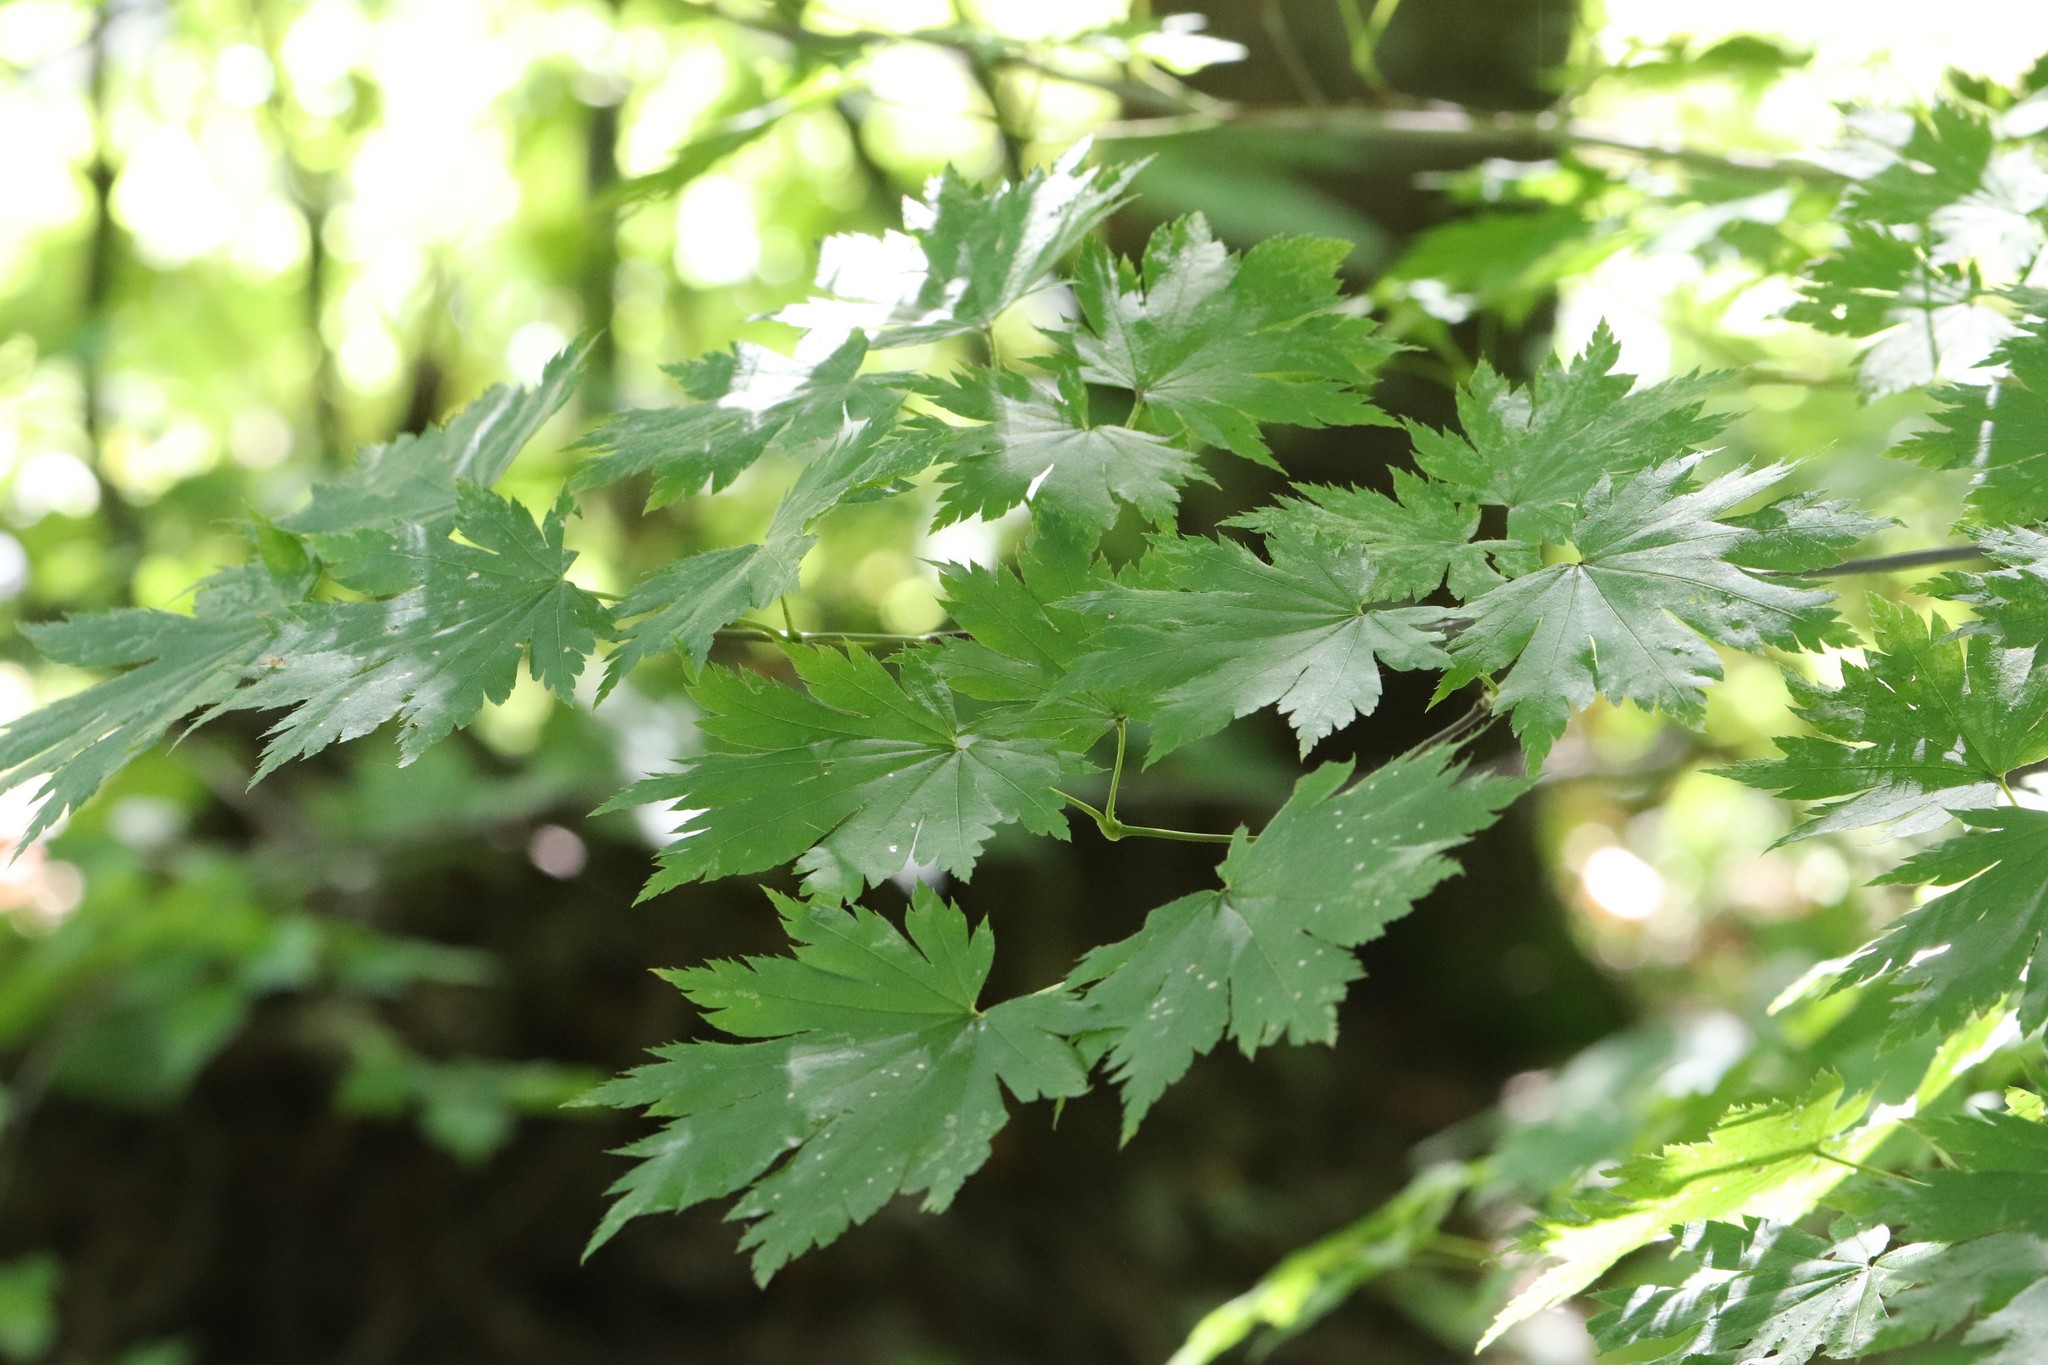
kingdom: Plantae
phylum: Tracheophyta
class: Magnoliopsida
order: Sapindales
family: Sapindaceae
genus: Acer
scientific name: Acer pseudosieboldianum
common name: Korean maple
